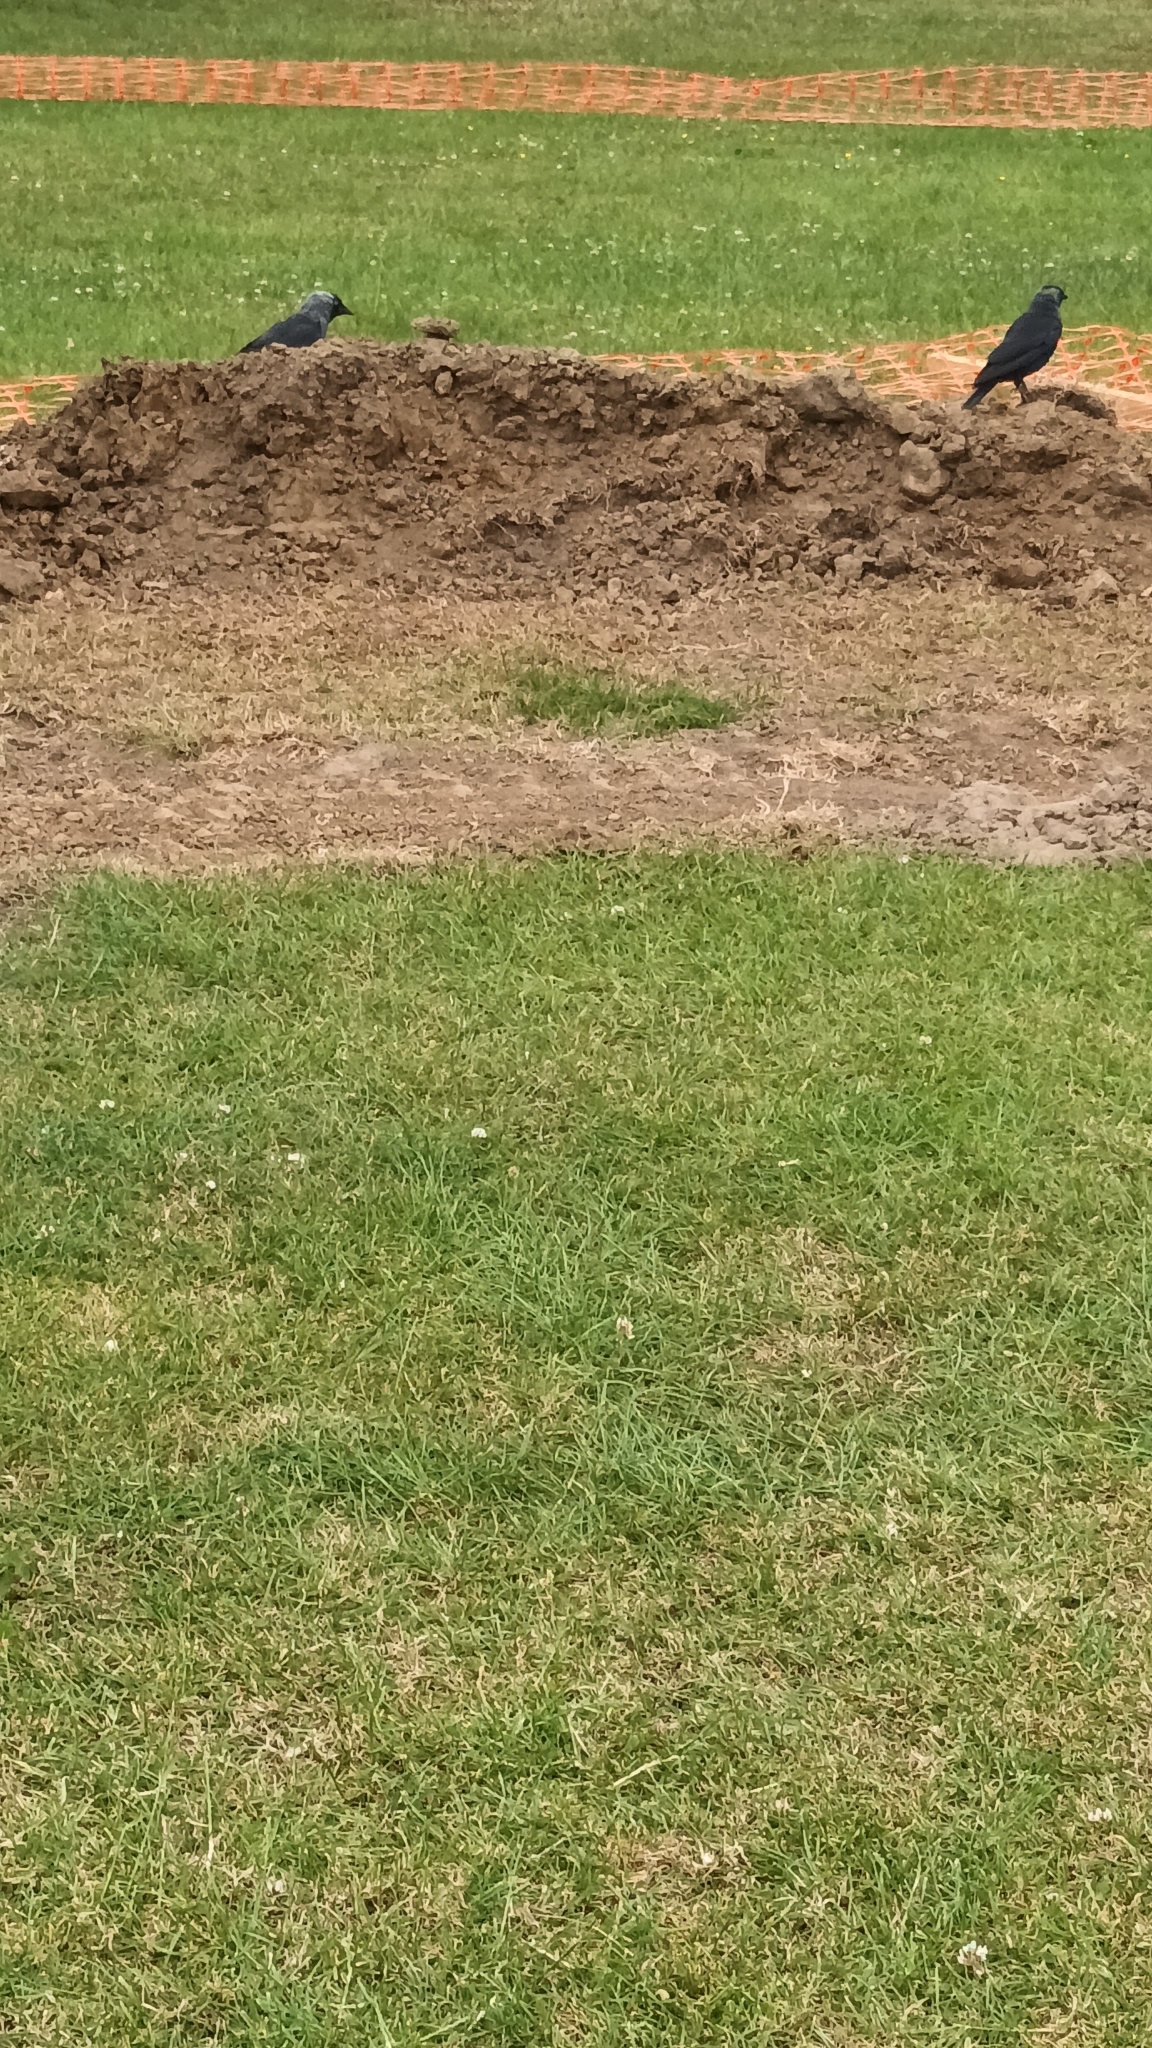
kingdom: Animalia
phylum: Chordata
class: Aves
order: Passeriformes
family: Corvidae
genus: Coloeus
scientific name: Coloeus monedula
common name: Western jackdaw
